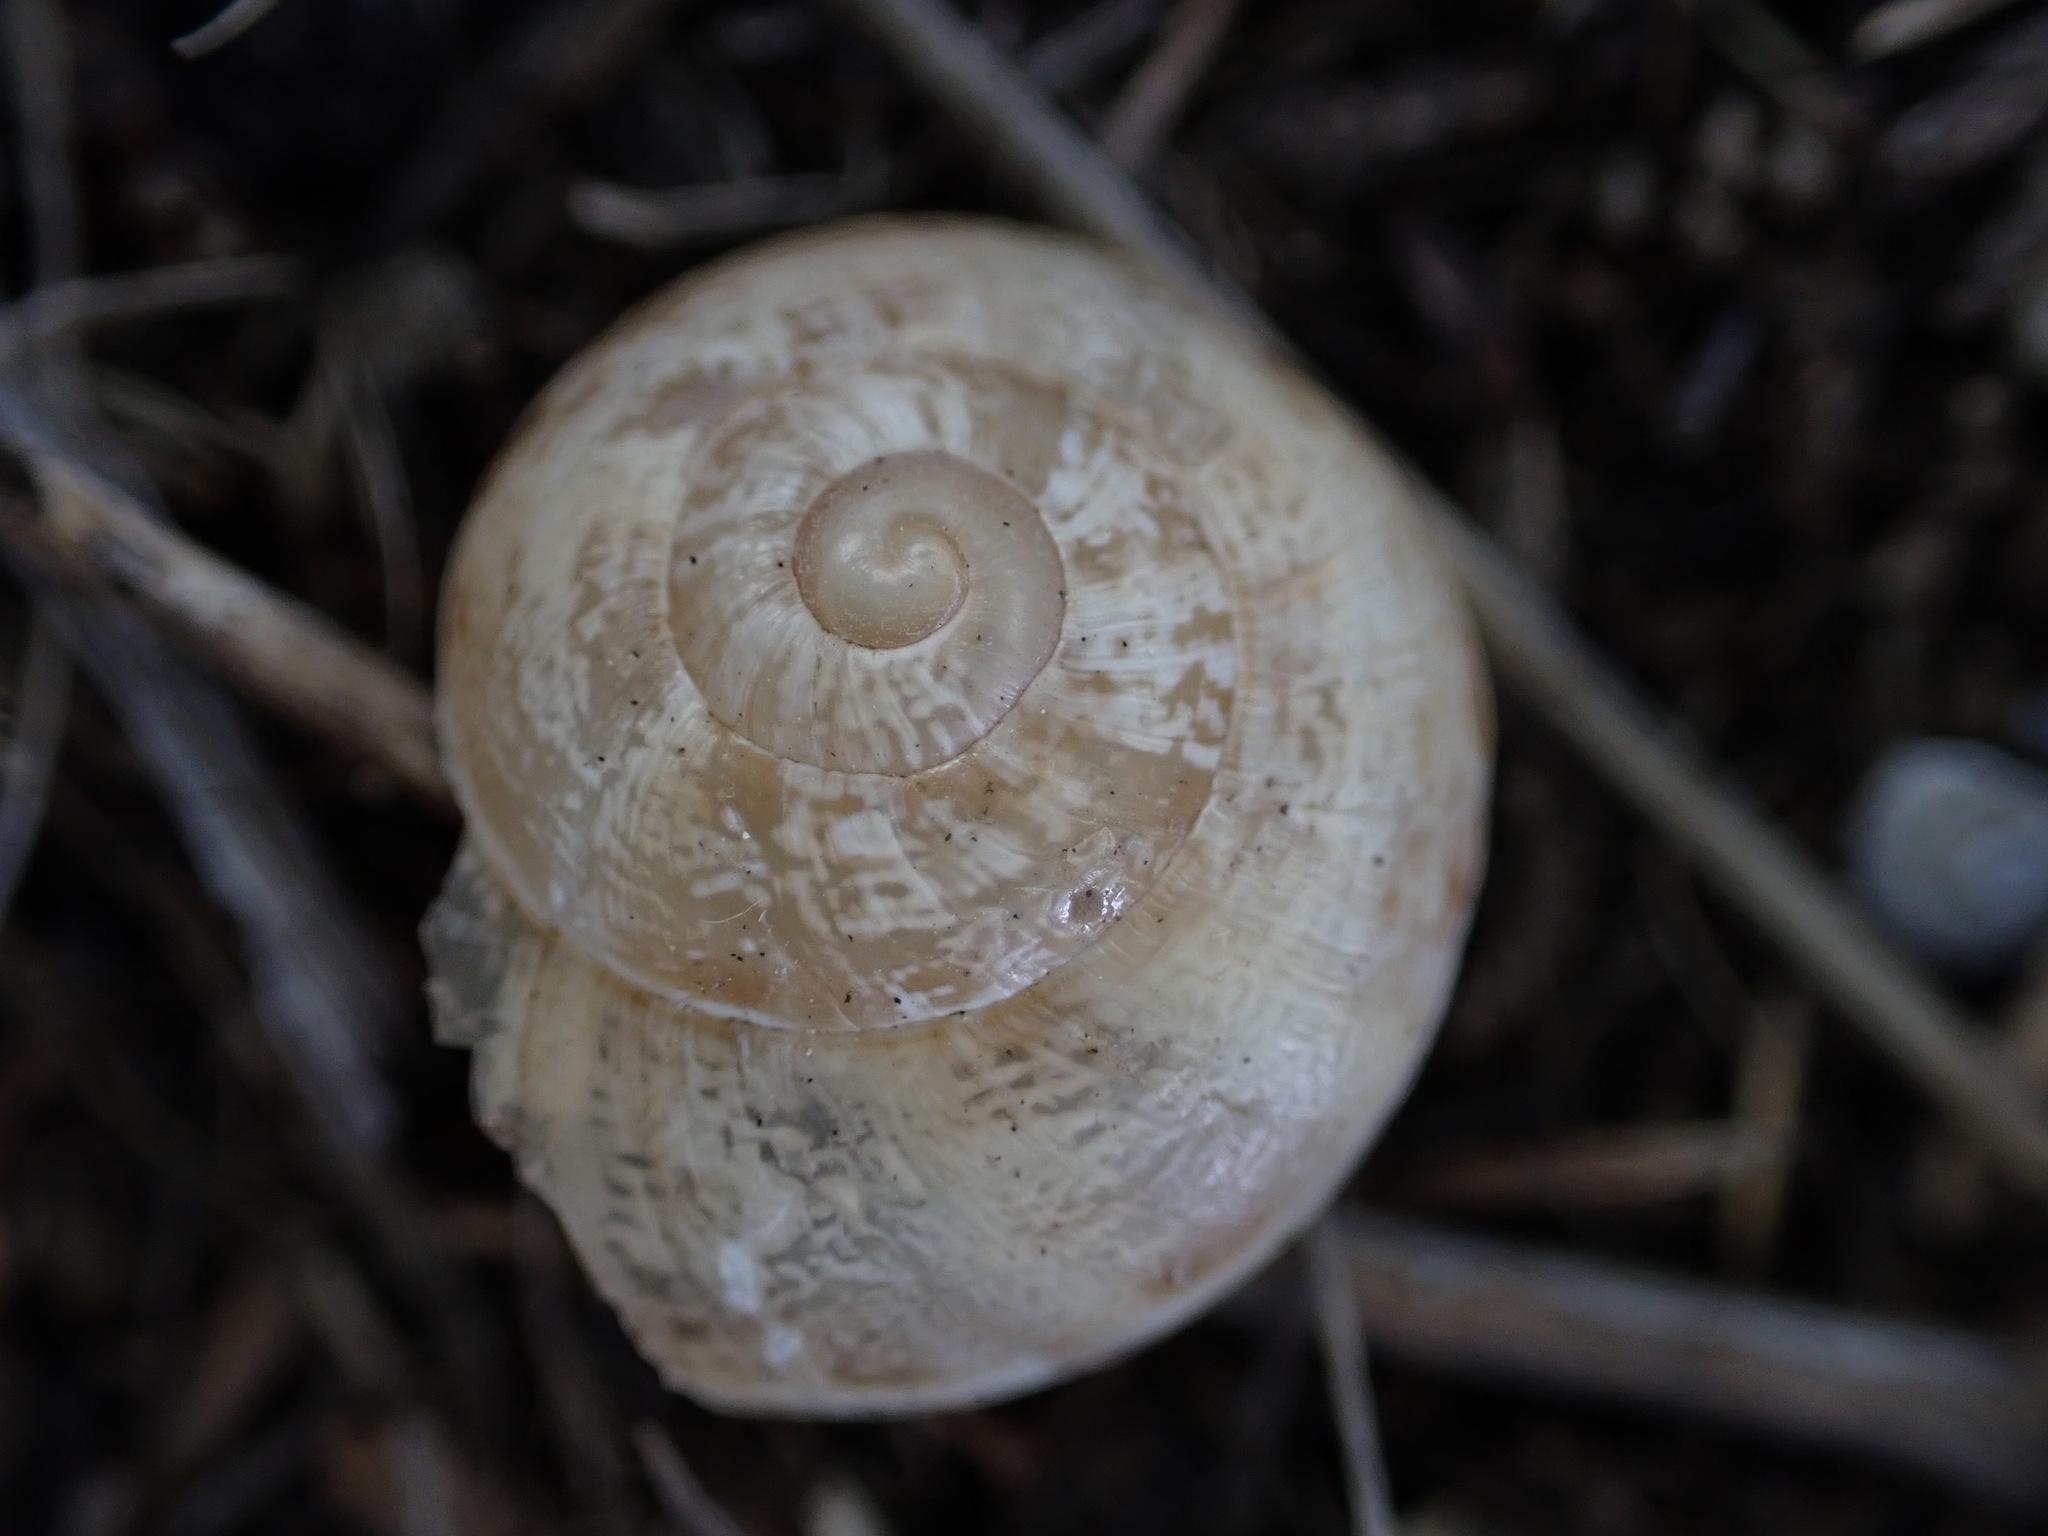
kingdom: Animalia
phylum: Mollusca
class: Gastropoda
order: Stylommatophora
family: Helicidae
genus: Eobania
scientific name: Eobania vermiculata
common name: Chocolateband snail
